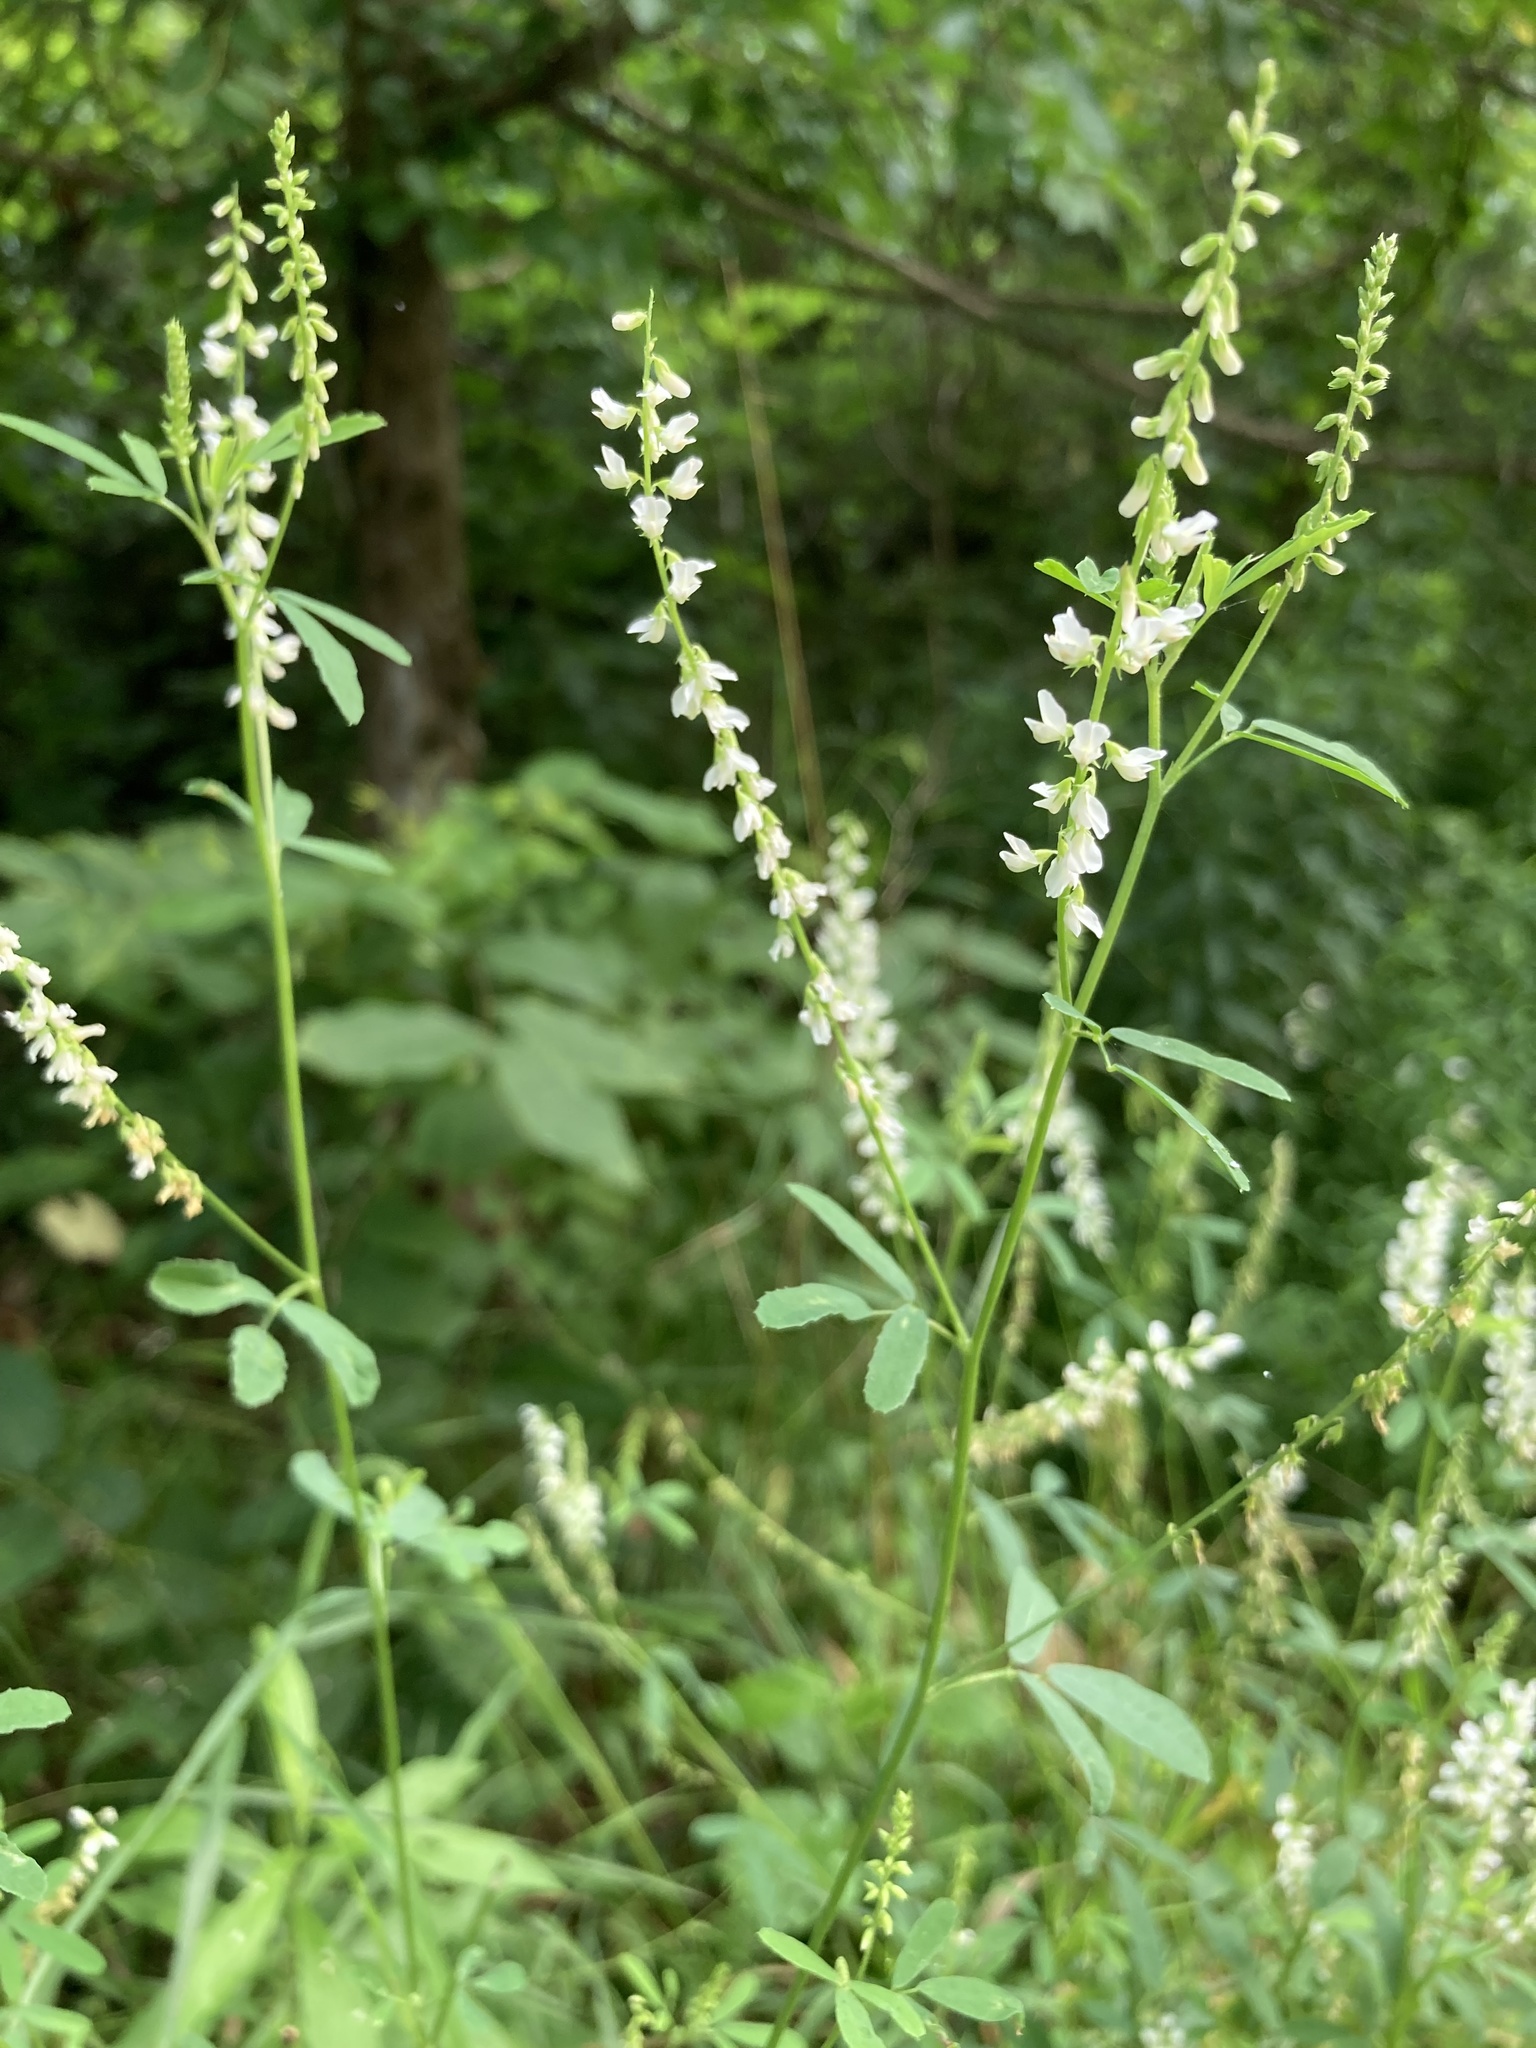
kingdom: Plantae
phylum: Tracheophyta
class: Magnoliopsida
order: Fabales
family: Fabaceae
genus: Melilotus
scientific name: Melilotus albus
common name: White melilot
